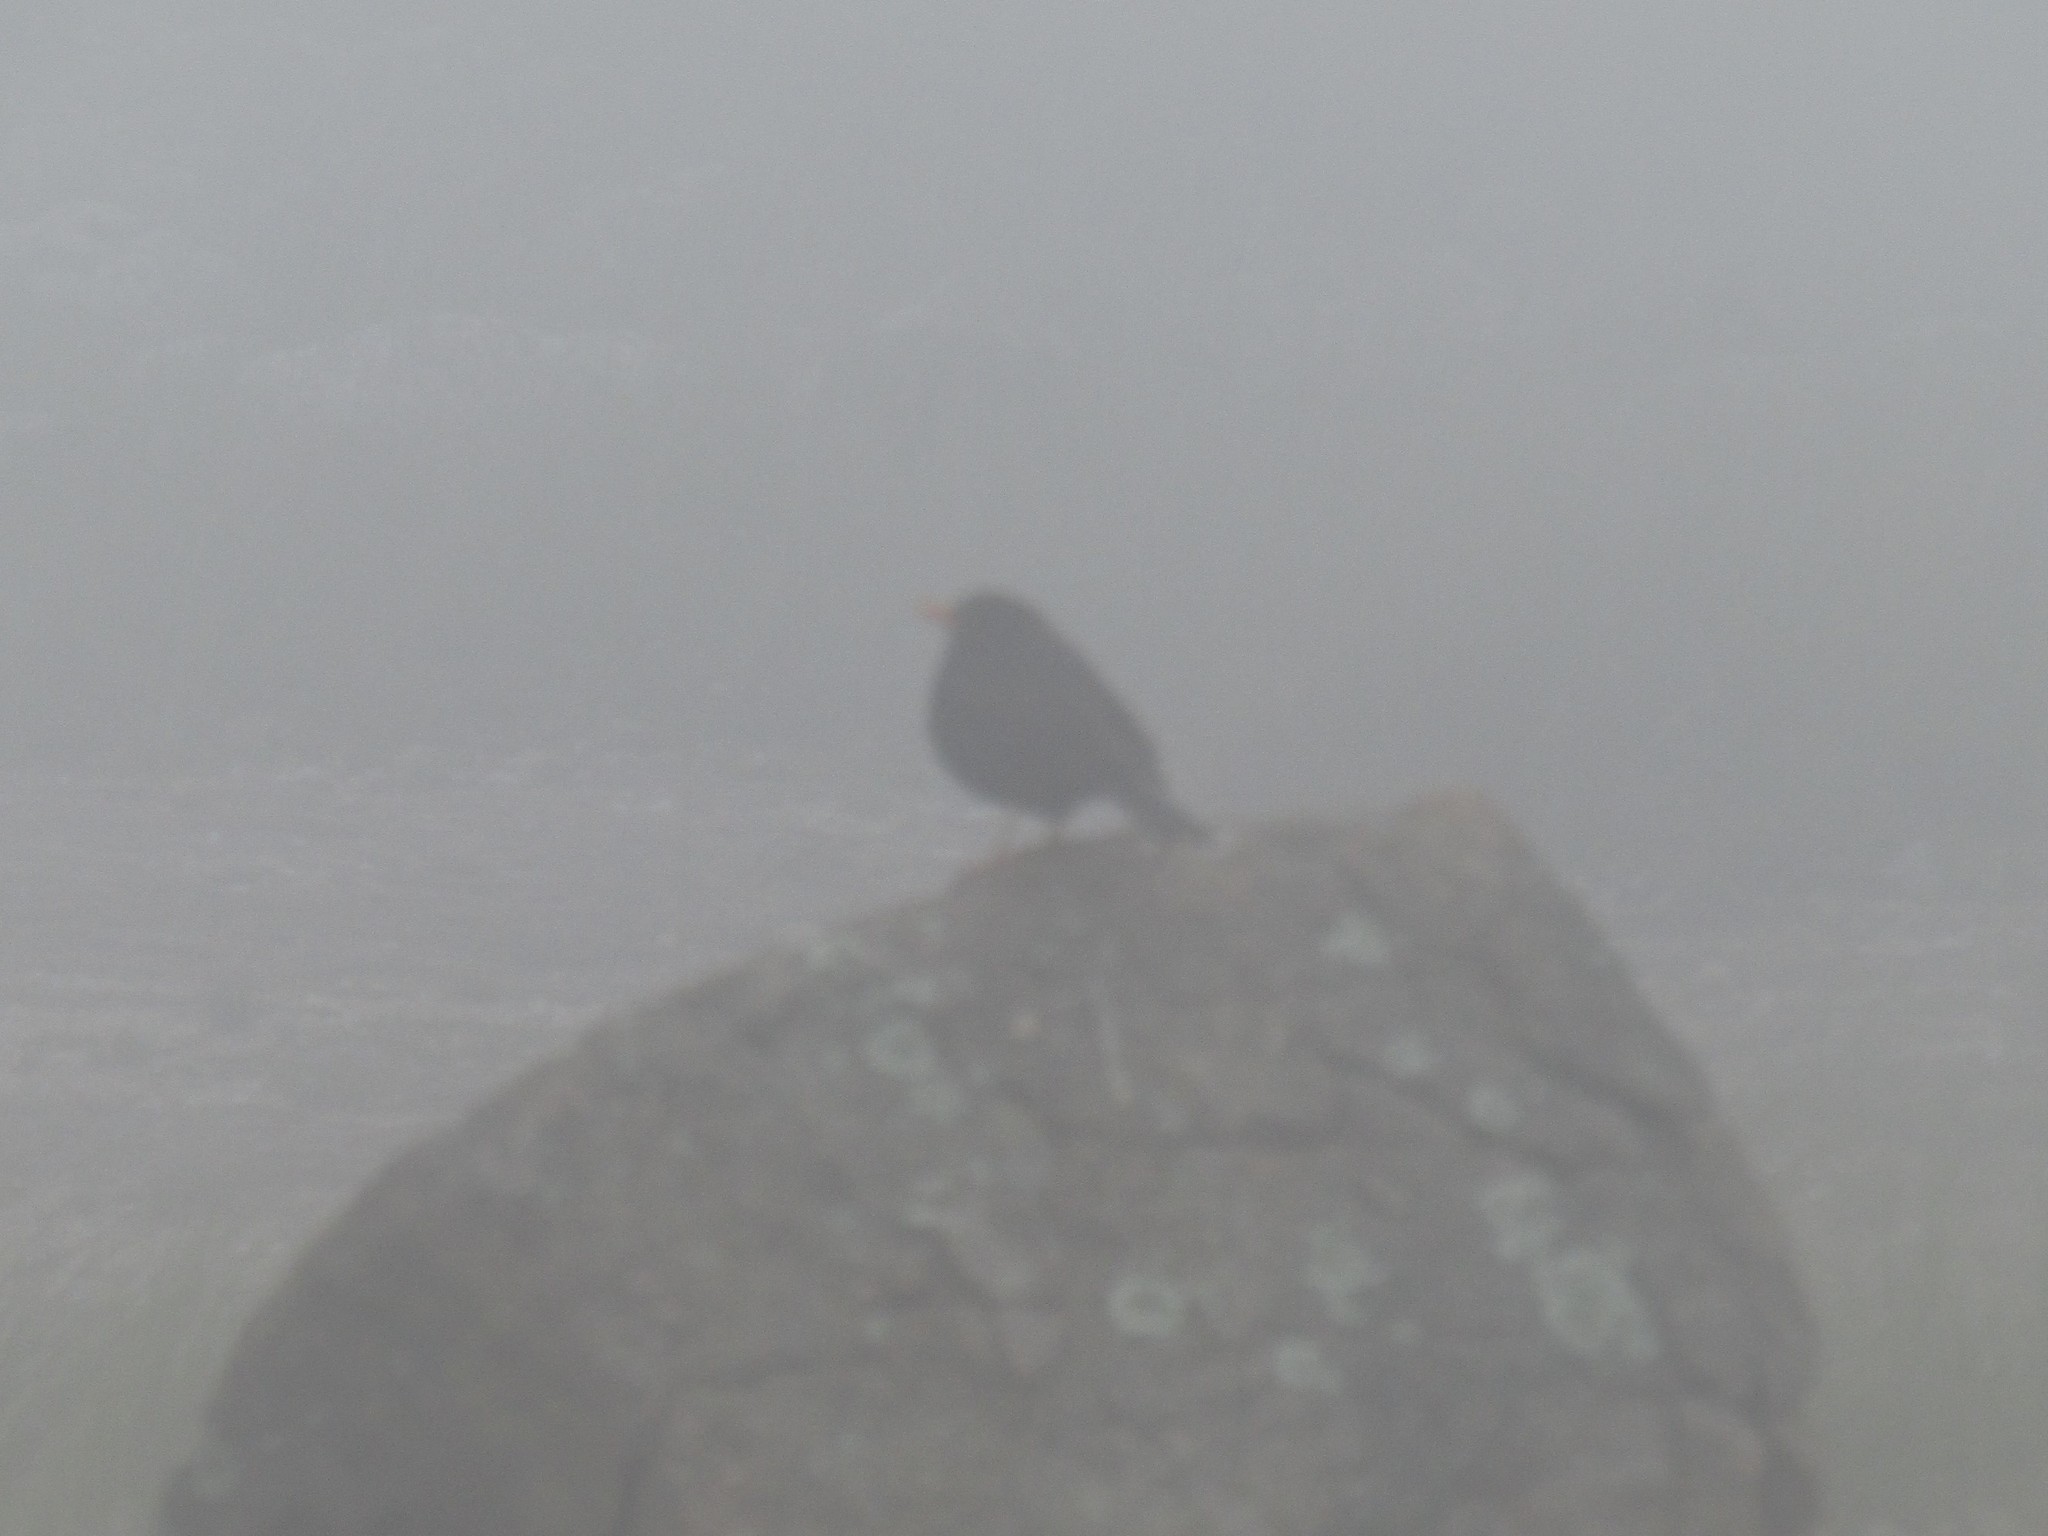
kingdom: Animalia
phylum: Chordata
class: Aves
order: Passeriformes
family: Turdidae
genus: Turdus
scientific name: Turdus chiguanco
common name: Chiguanco thrush
